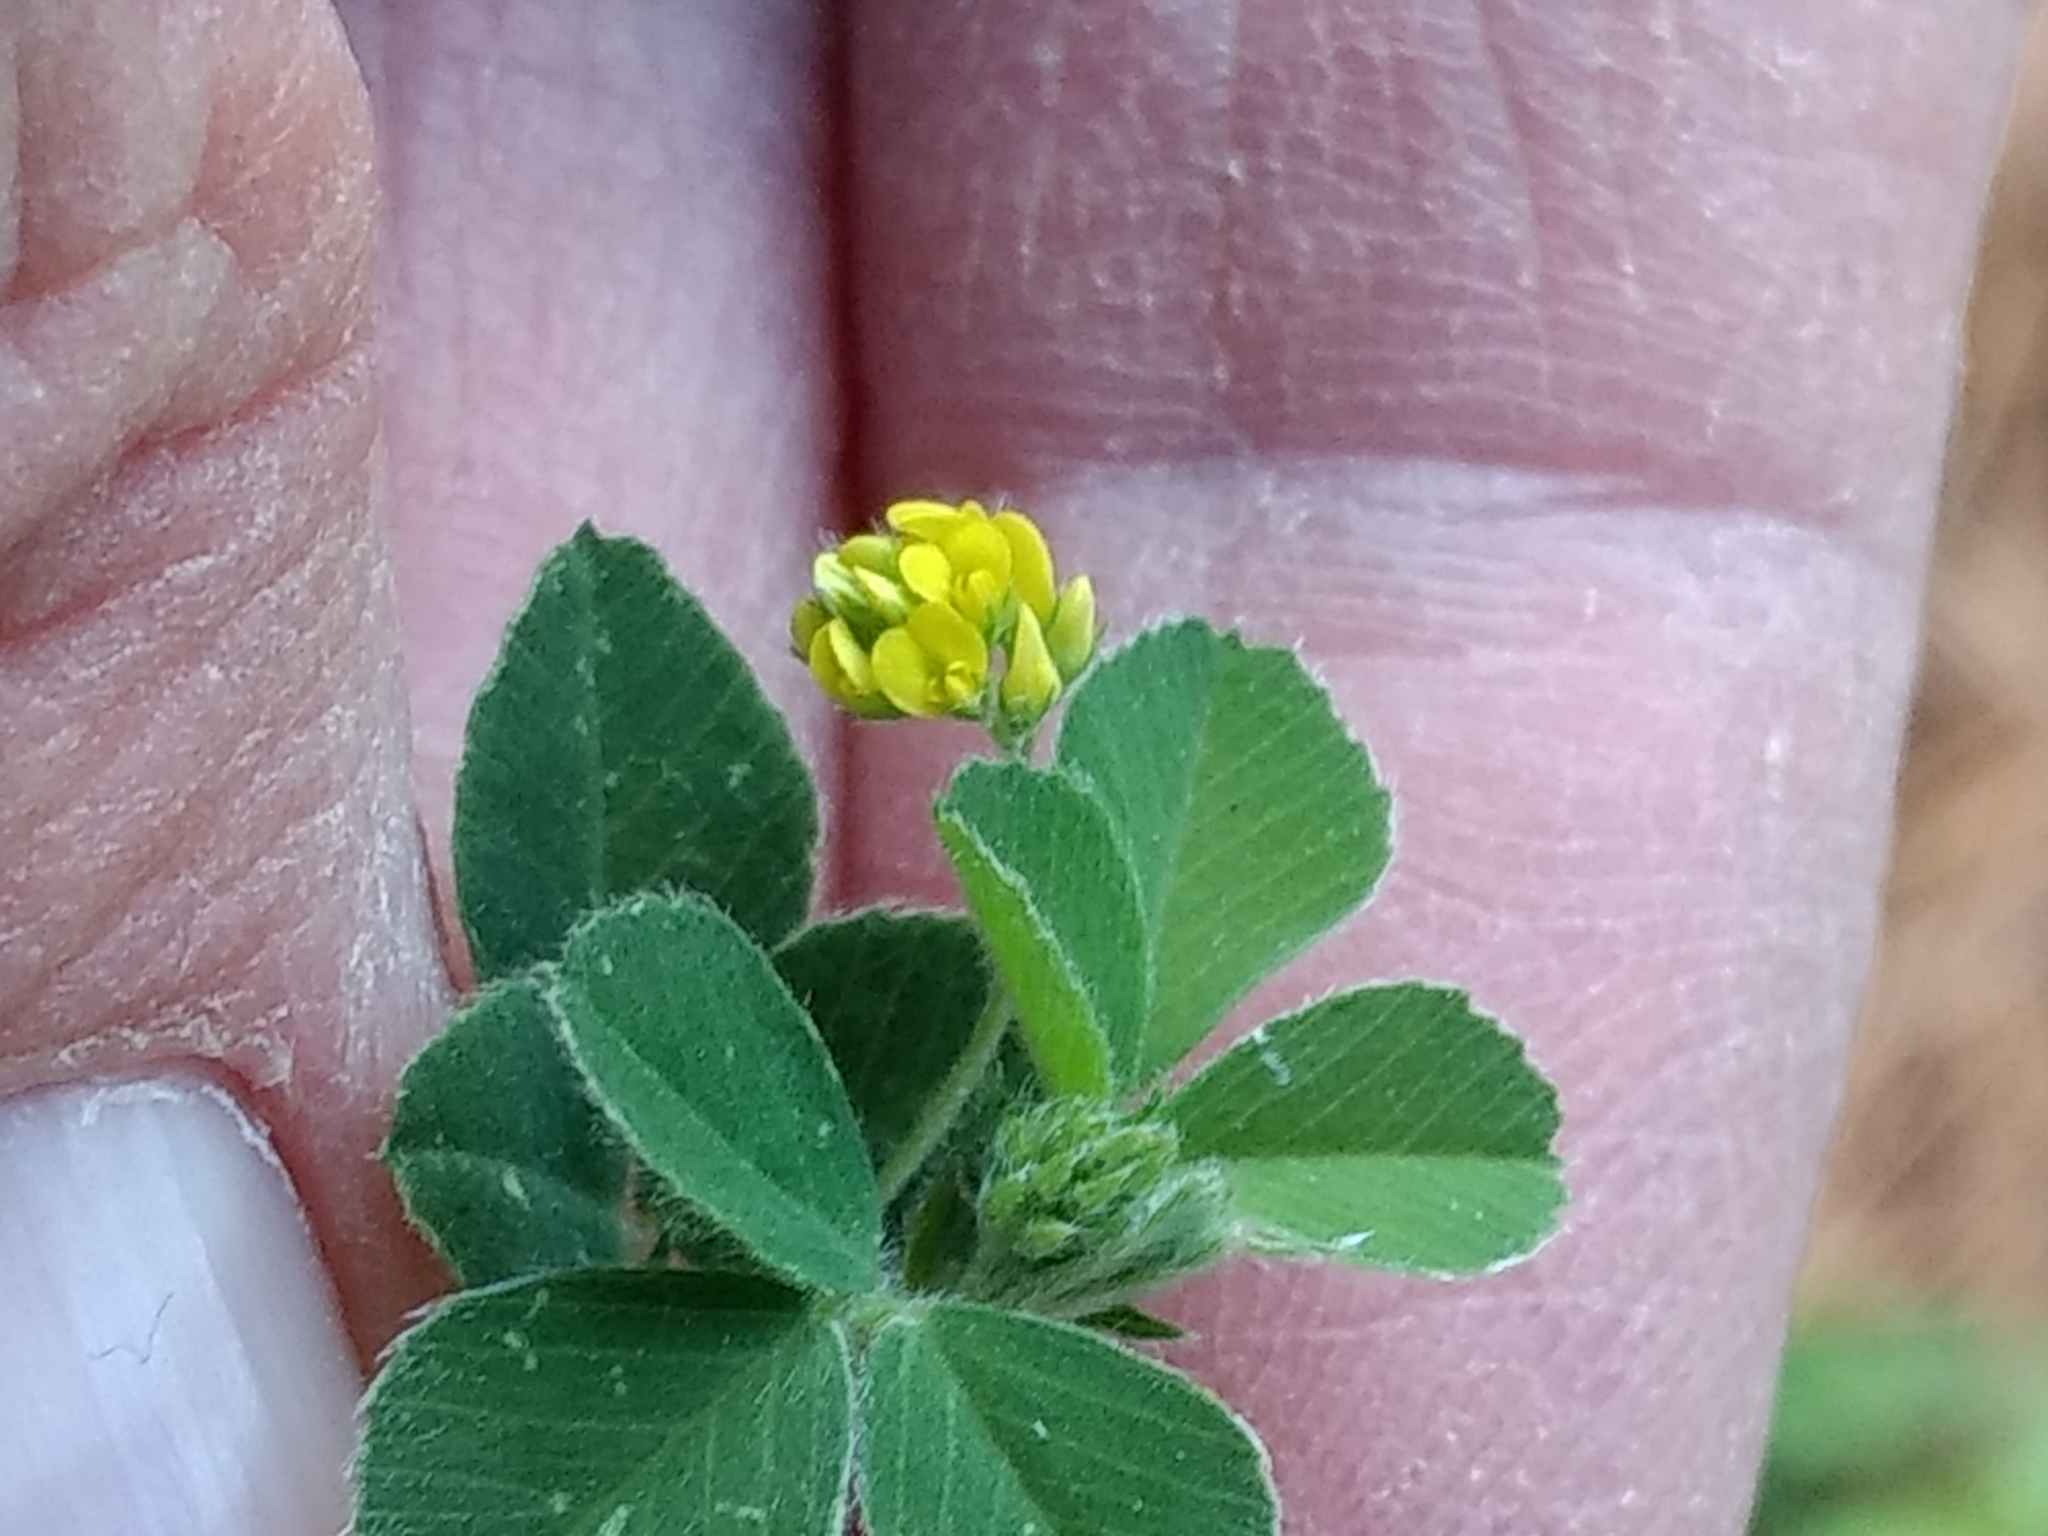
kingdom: Plantae
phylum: Tracheophyta
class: Magnoliopsida
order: Fabales
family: Fabaceae
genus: Medicago
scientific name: Medicago lupulina
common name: Black medick
